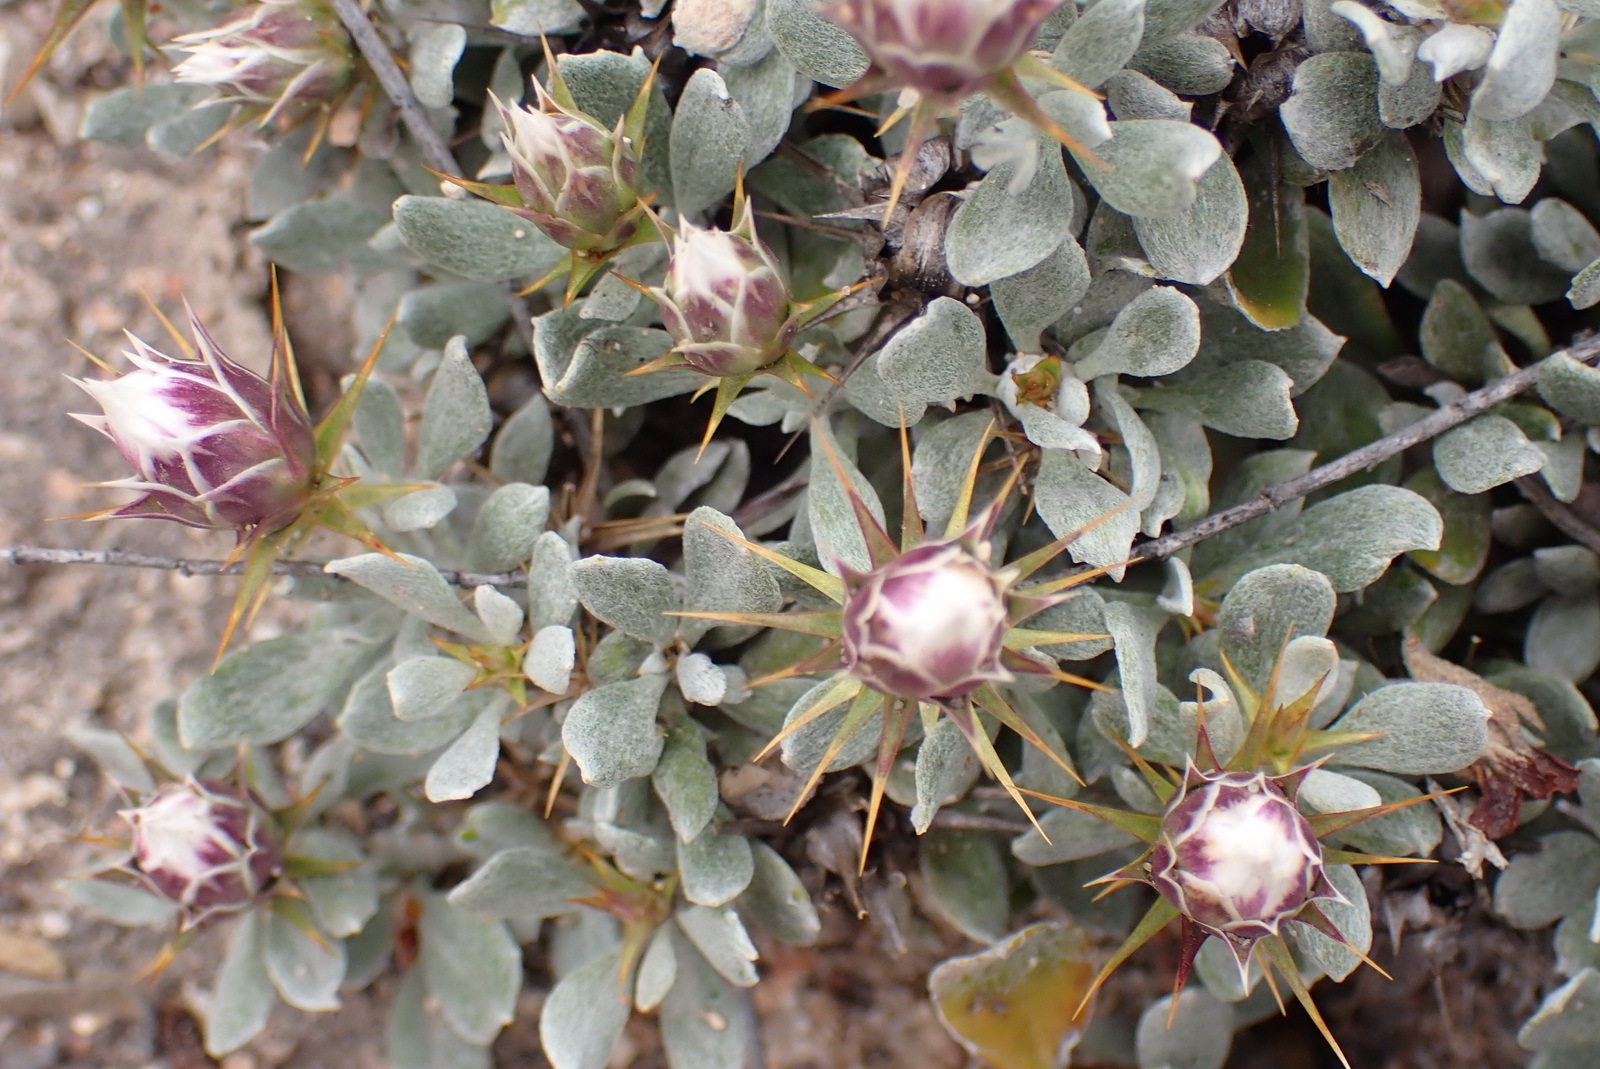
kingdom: Plantae
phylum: Tracheophyta
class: Magnoliopsida
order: Asterales
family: Asteraceae
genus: Macledium
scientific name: Macledium spinosum
